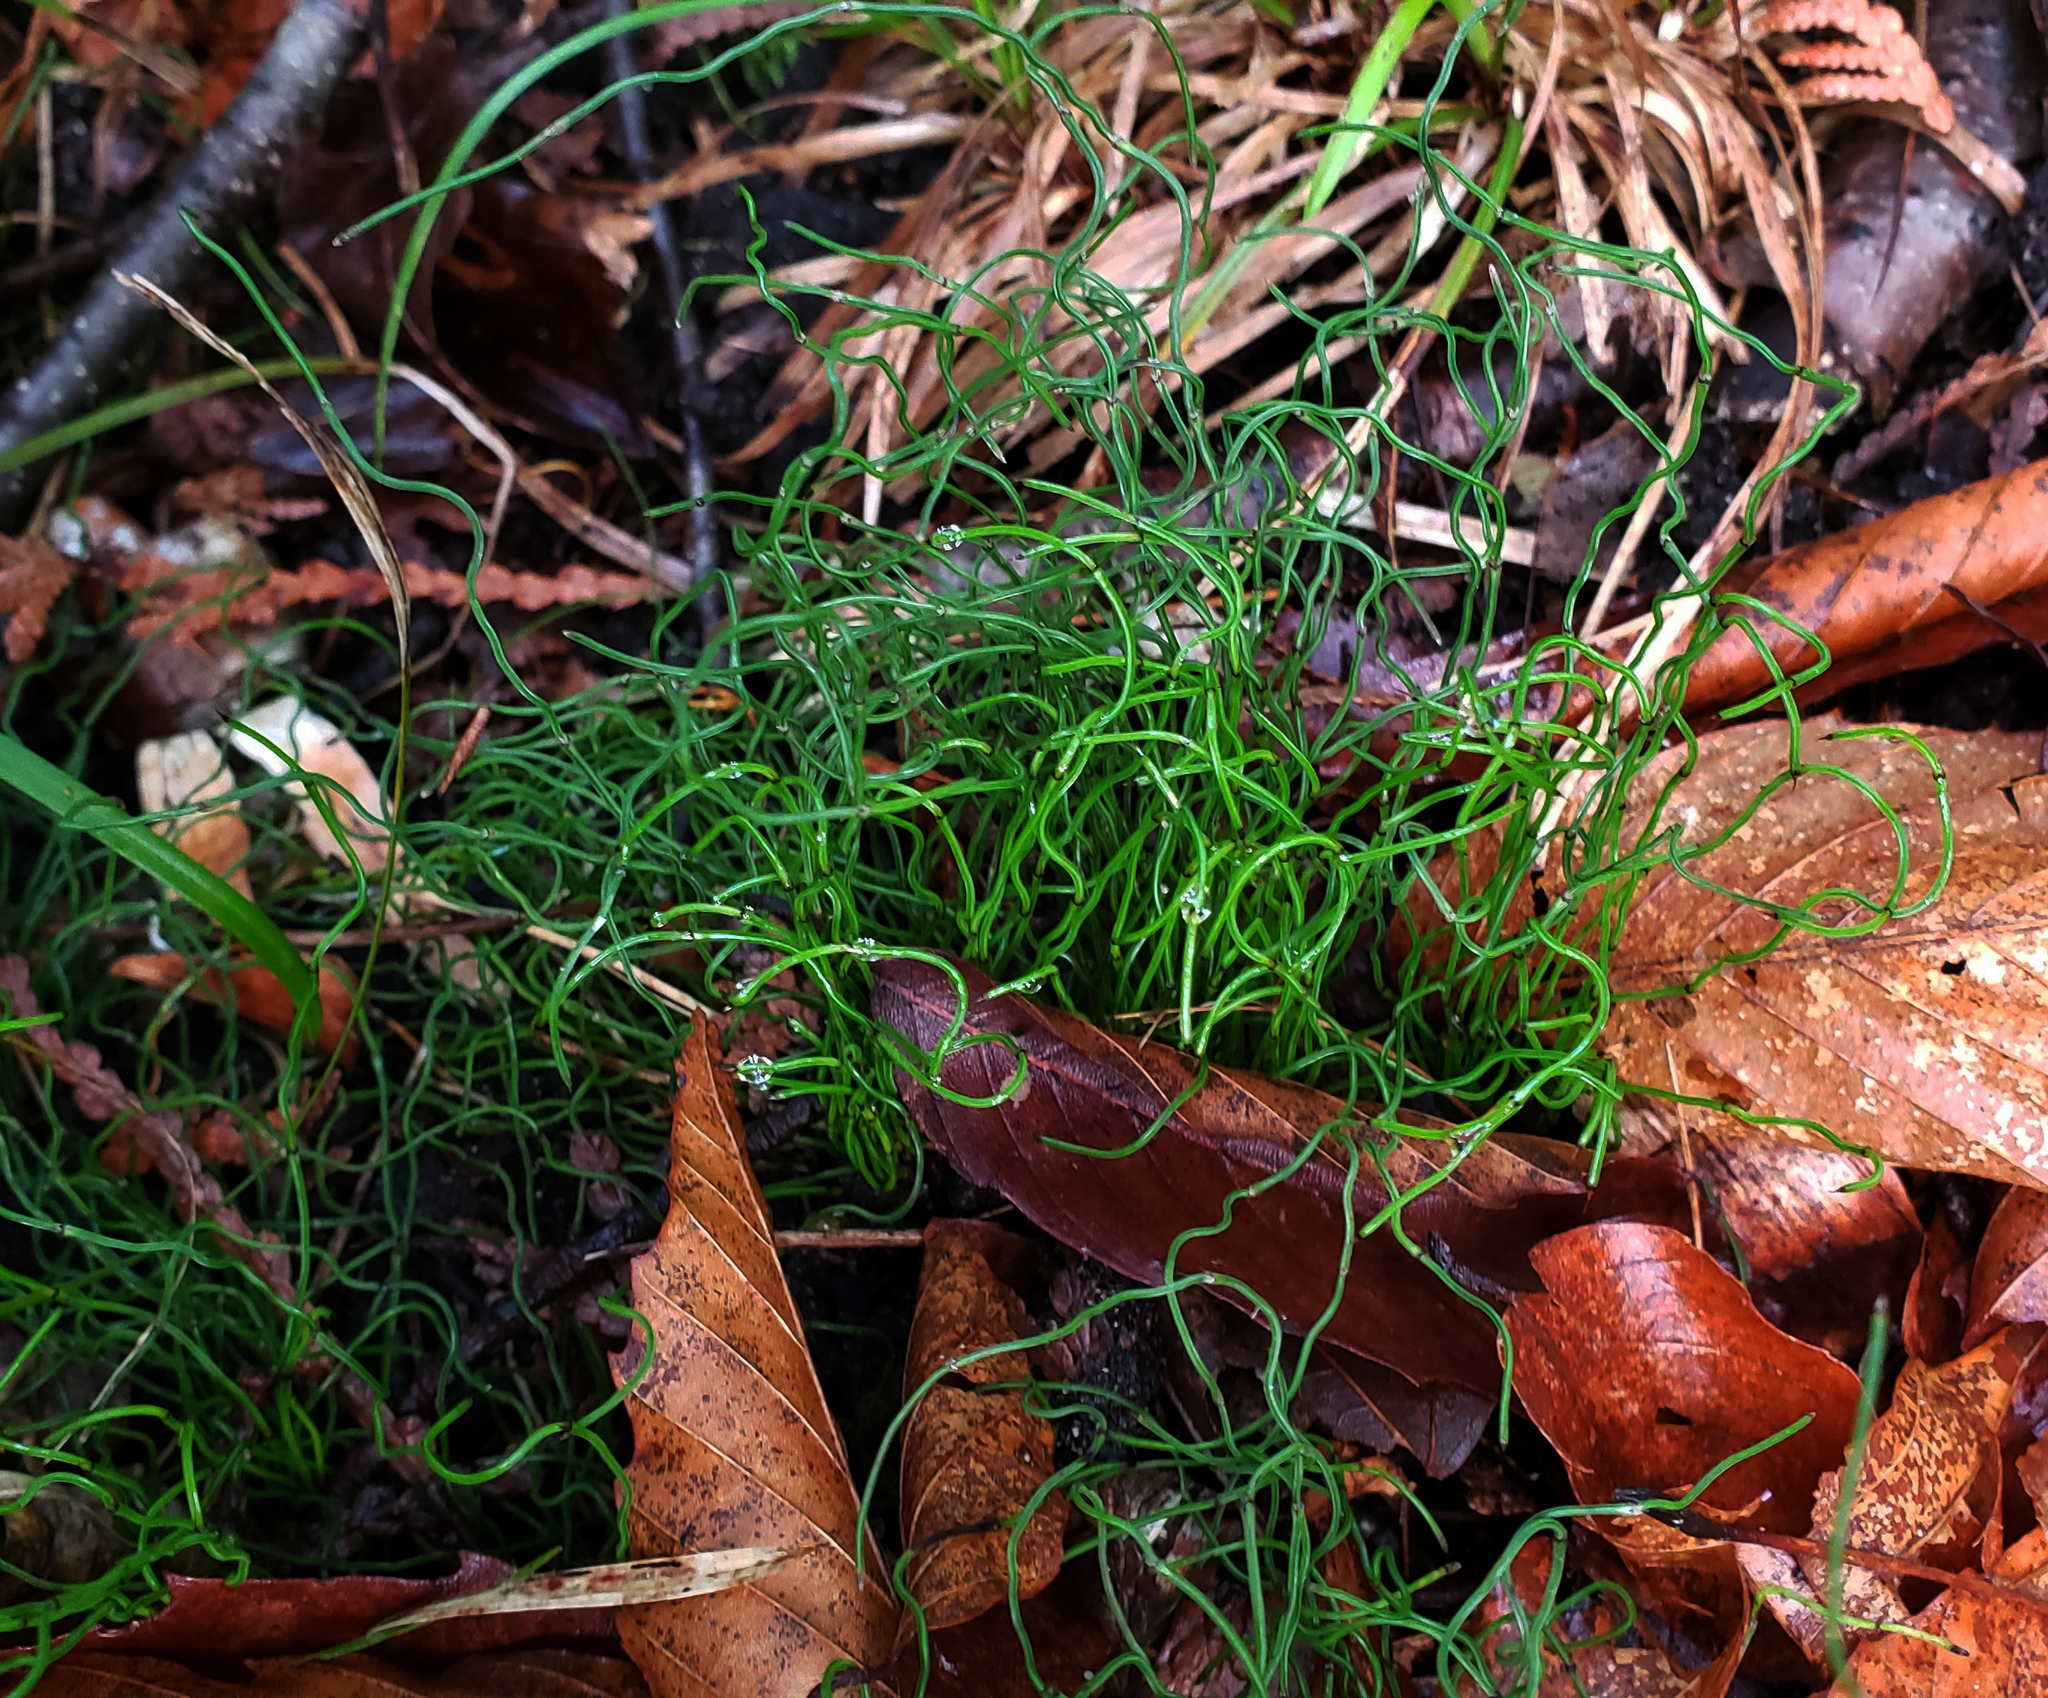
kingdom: Plantae
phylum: Tracheophyta
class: Polypodiopsida
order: Equisetales
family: Equisetaceae
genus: Equisetum
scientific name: Equisetum scirpoides
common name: Delicate horsetail
